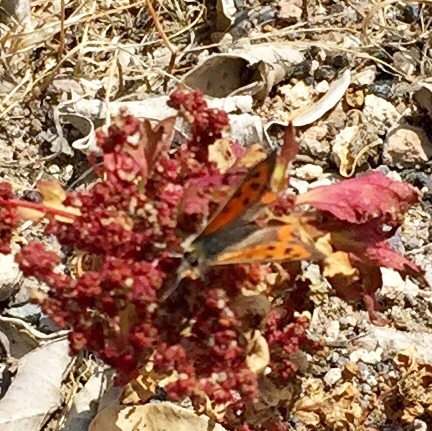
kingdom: Animalia
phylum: Arthropoda
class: Insecta
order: Lepidoptera
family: Lycaenidae
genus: Lycaena
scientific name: Lycaena phlaeas
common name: Small copper
